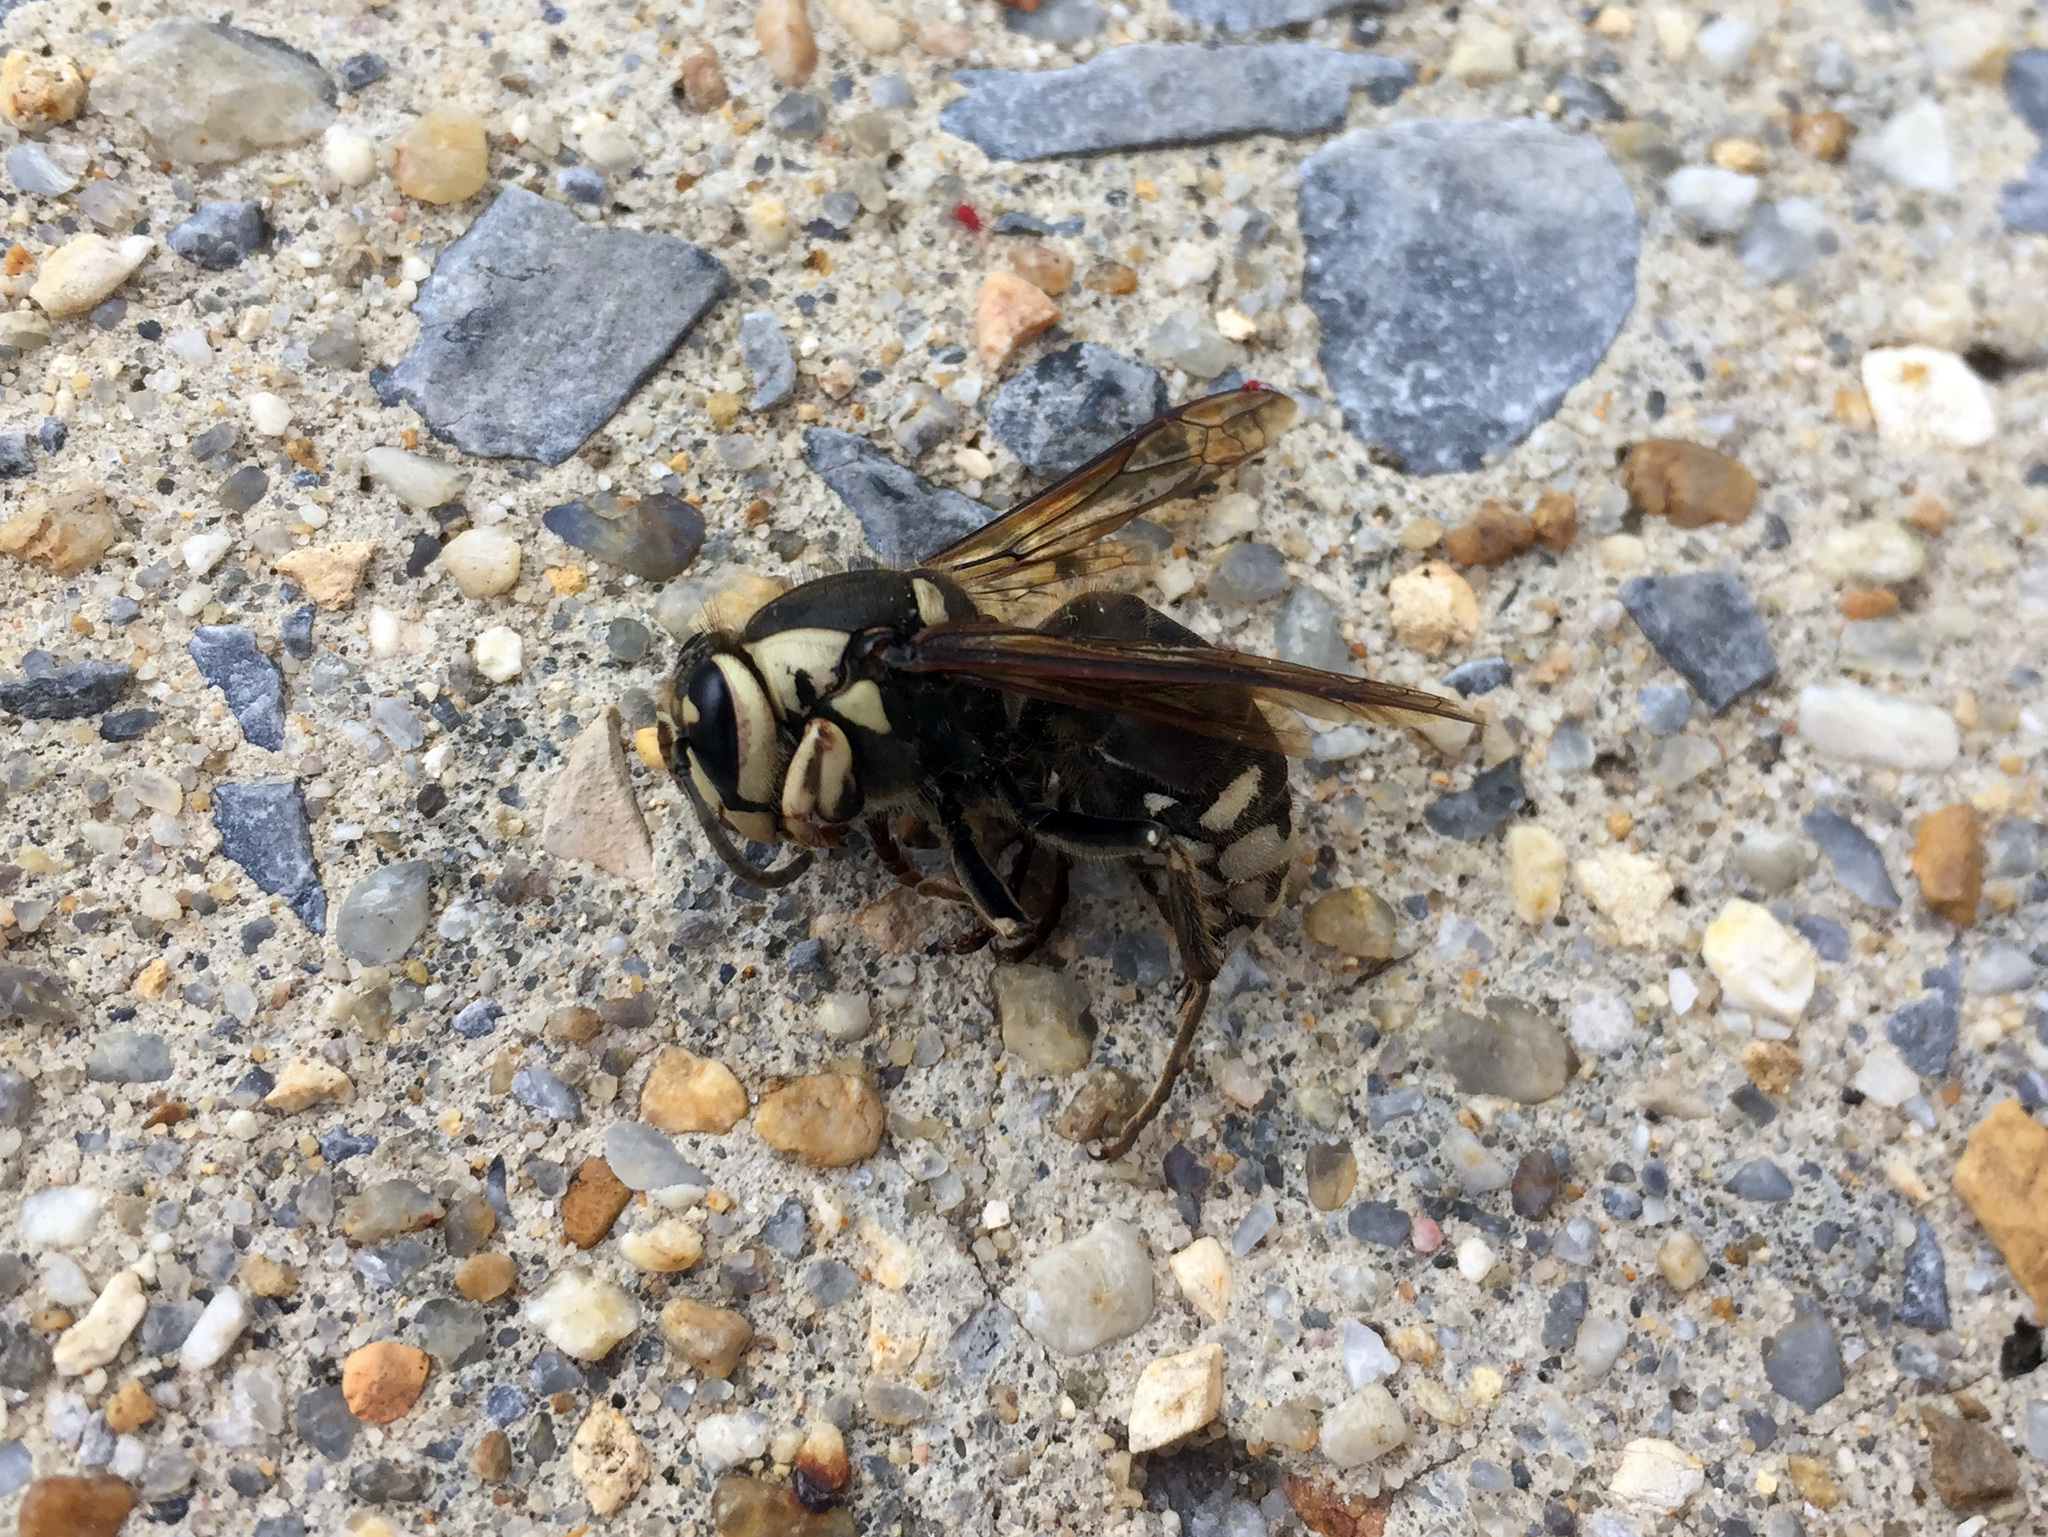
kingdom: Animalia
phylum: Arthropoda
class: Insecta
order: Hymenoptera
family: Vespidae
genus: Dolichovespula
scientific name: Dolichovespula maculata
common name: Bald-faced hornet
